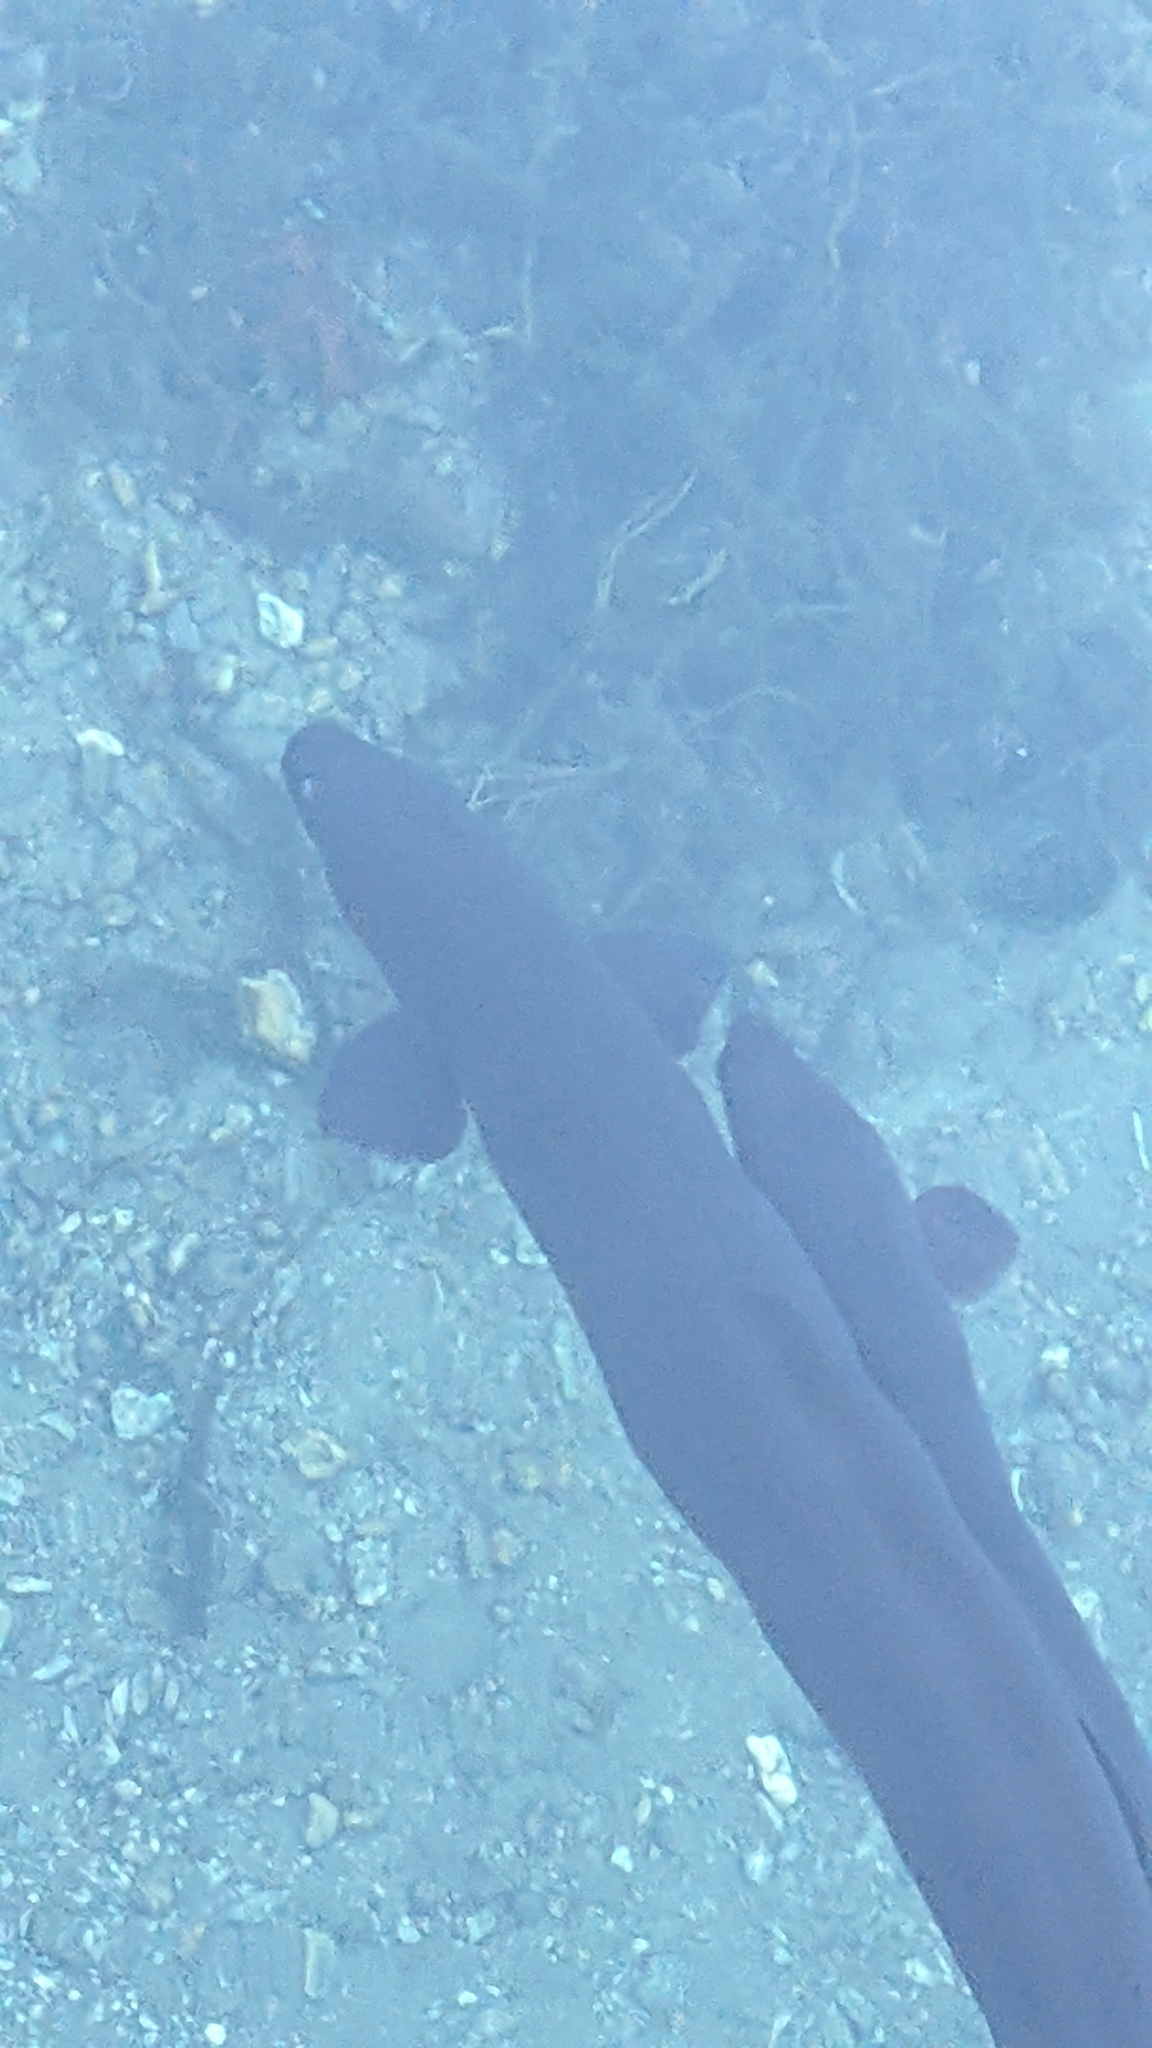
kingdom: Animalia
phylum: Chordata
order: Anguilliformes
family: Anguillidae
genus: Anguilla
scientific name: Anguilla dieffenbachii
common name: New zealand longfin eel
